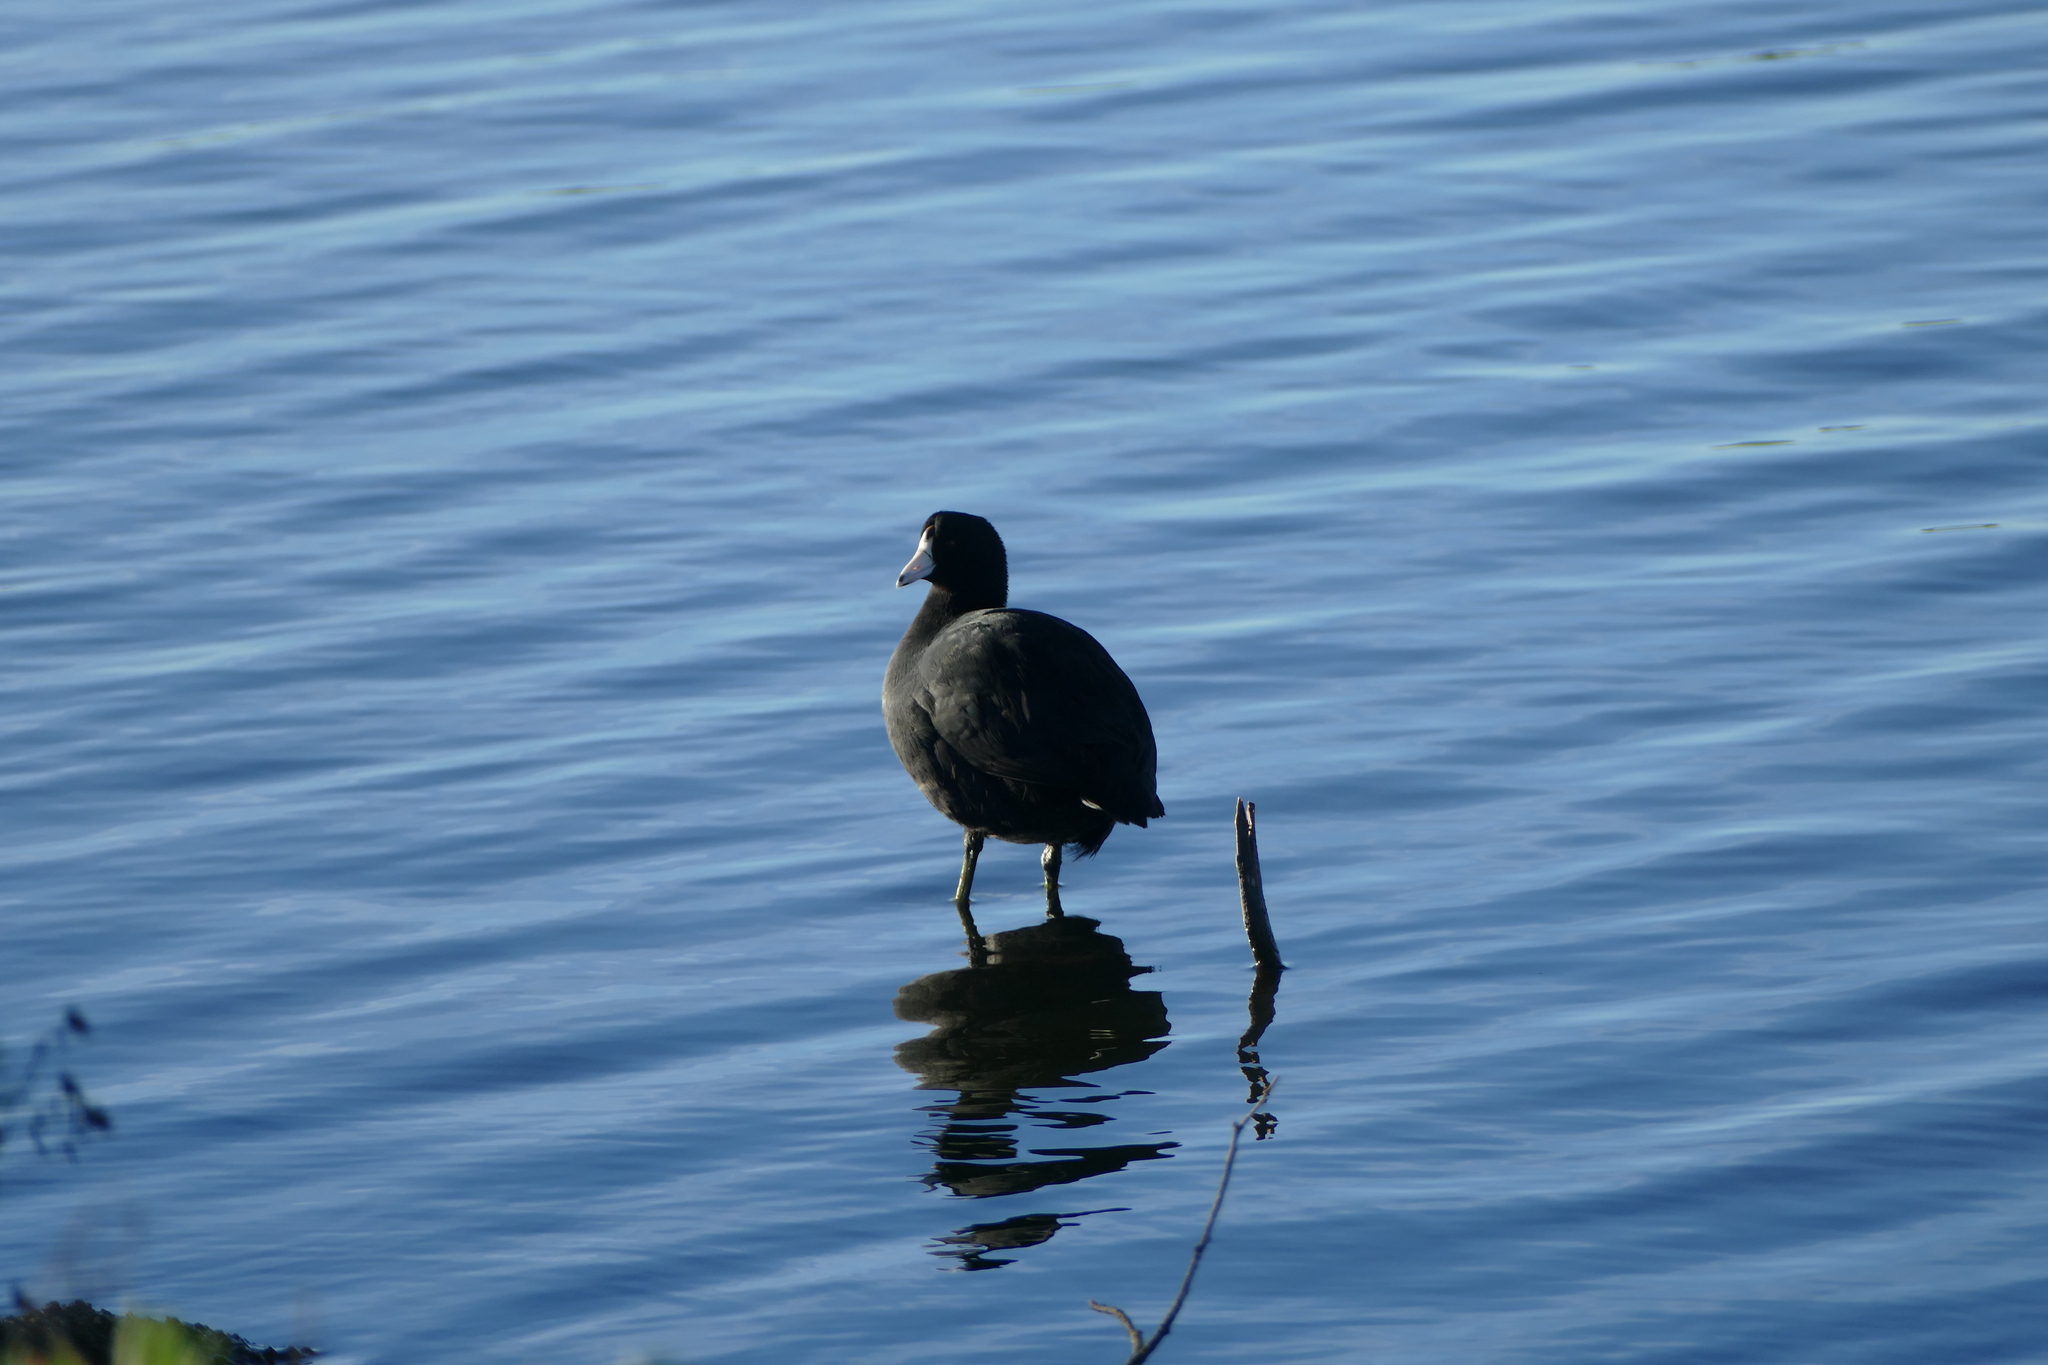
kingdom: Animalia
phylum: Chordata
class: Aves
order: Gruiformes
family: Rallidae
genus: Fulica
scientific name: Fulica americana
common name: American coot
